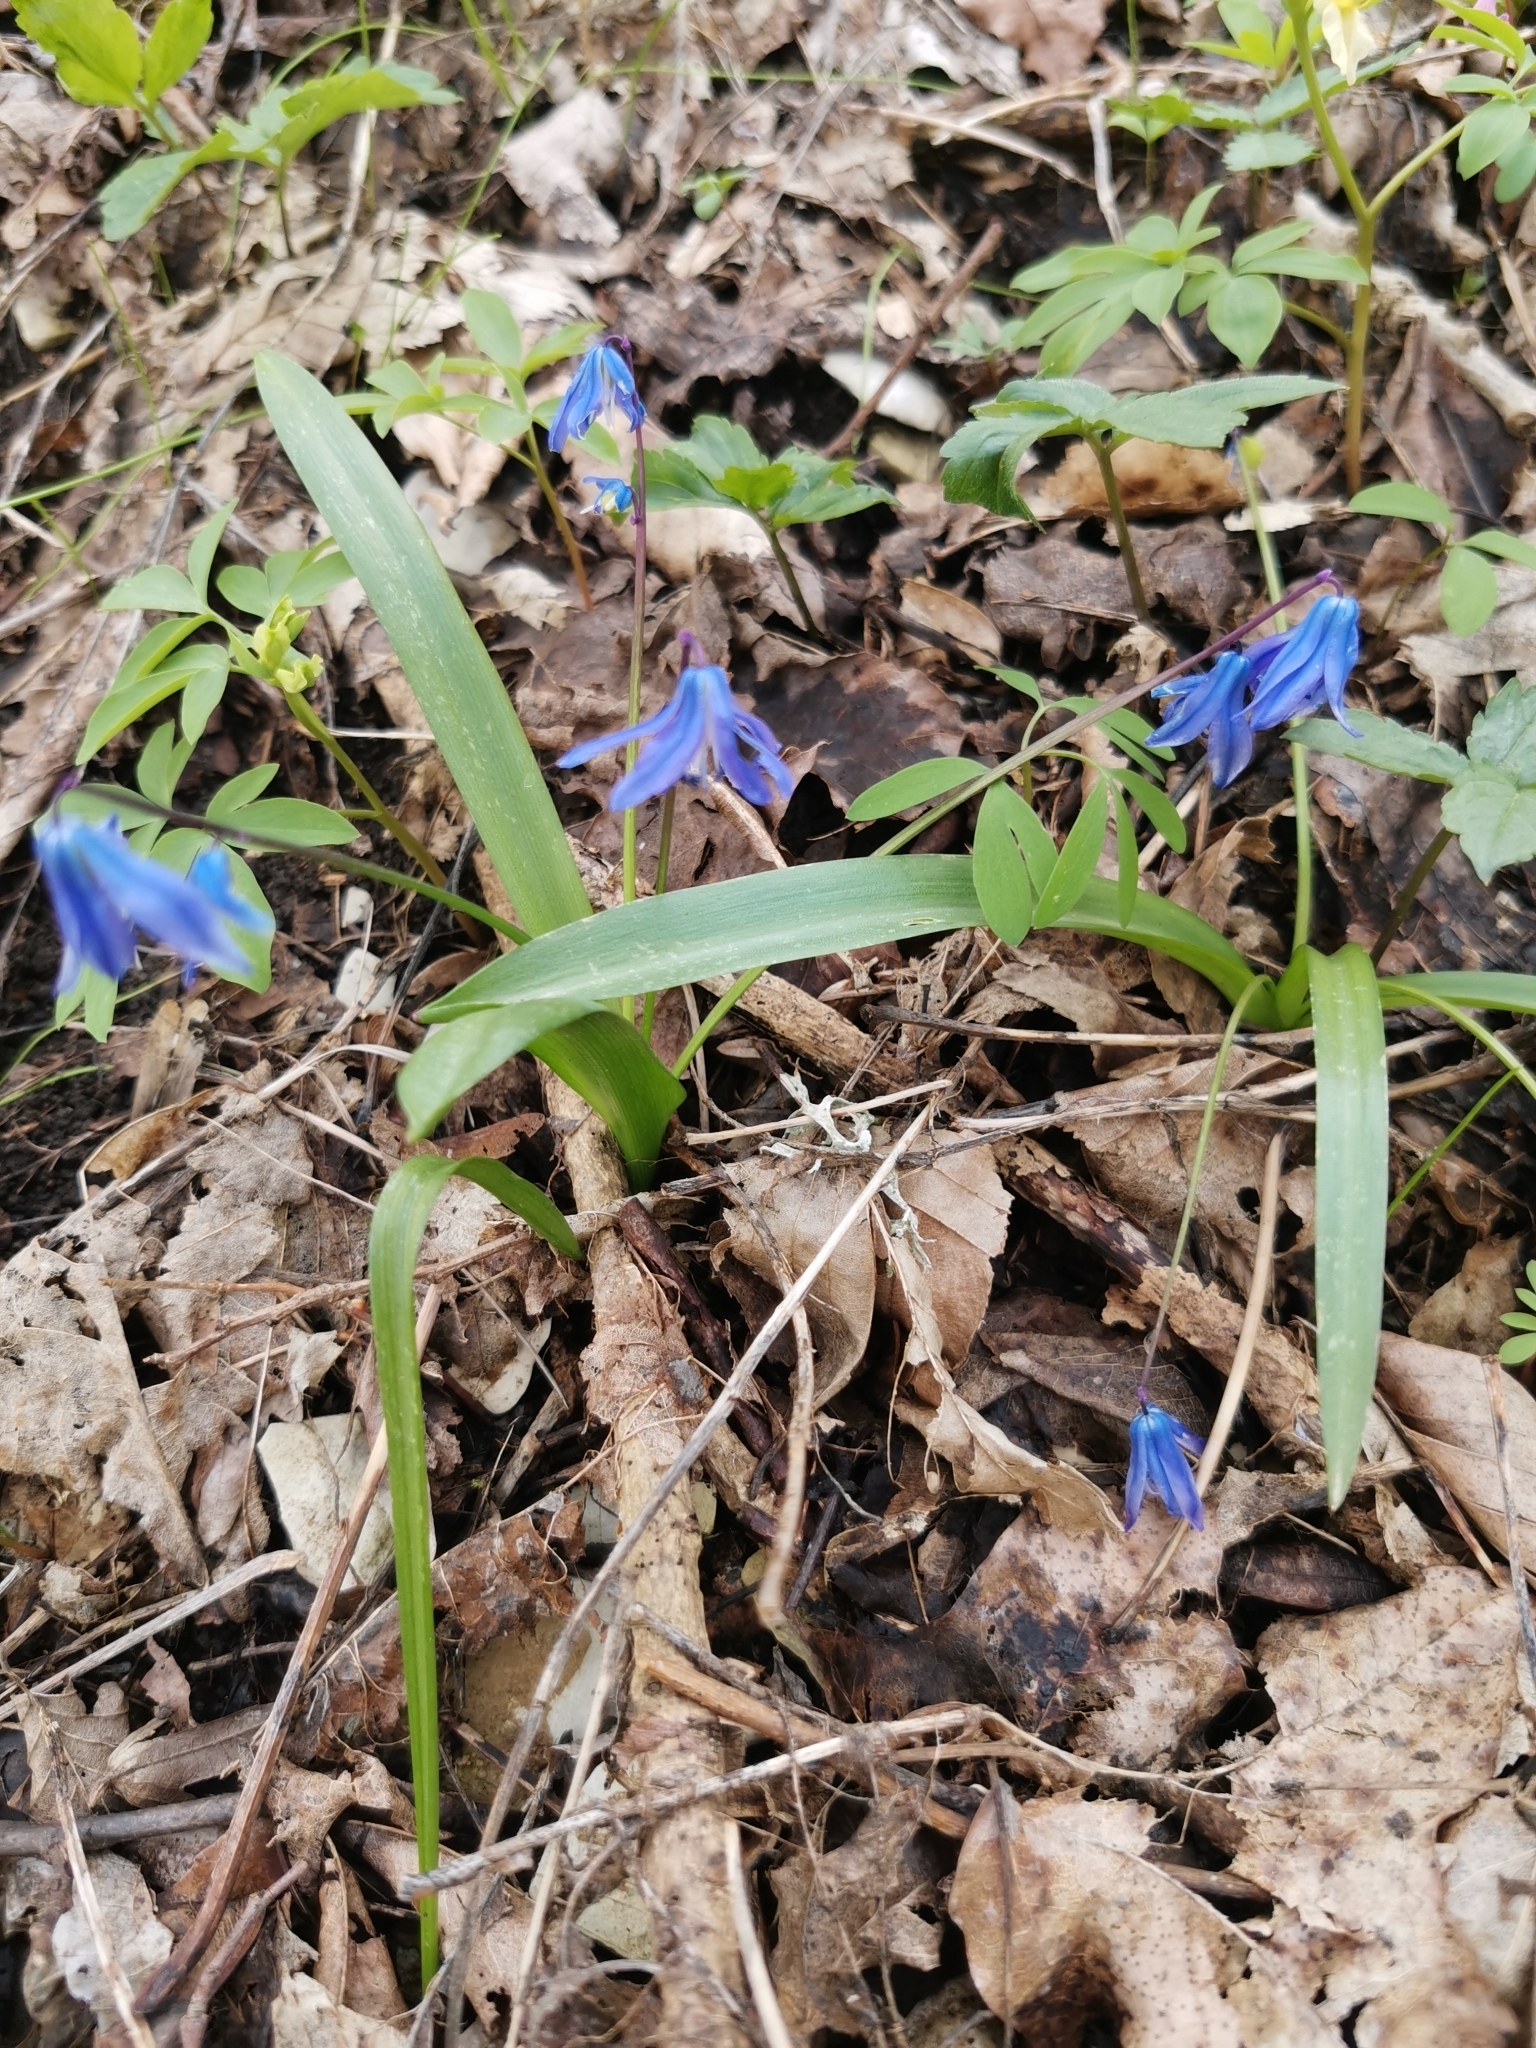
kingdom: Plantae
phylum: Tracheophyta
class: Liliopsida
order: Asparagales
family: Asparagaceae
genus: Scilla
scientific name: Scilla siberica
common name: Siberian squill
